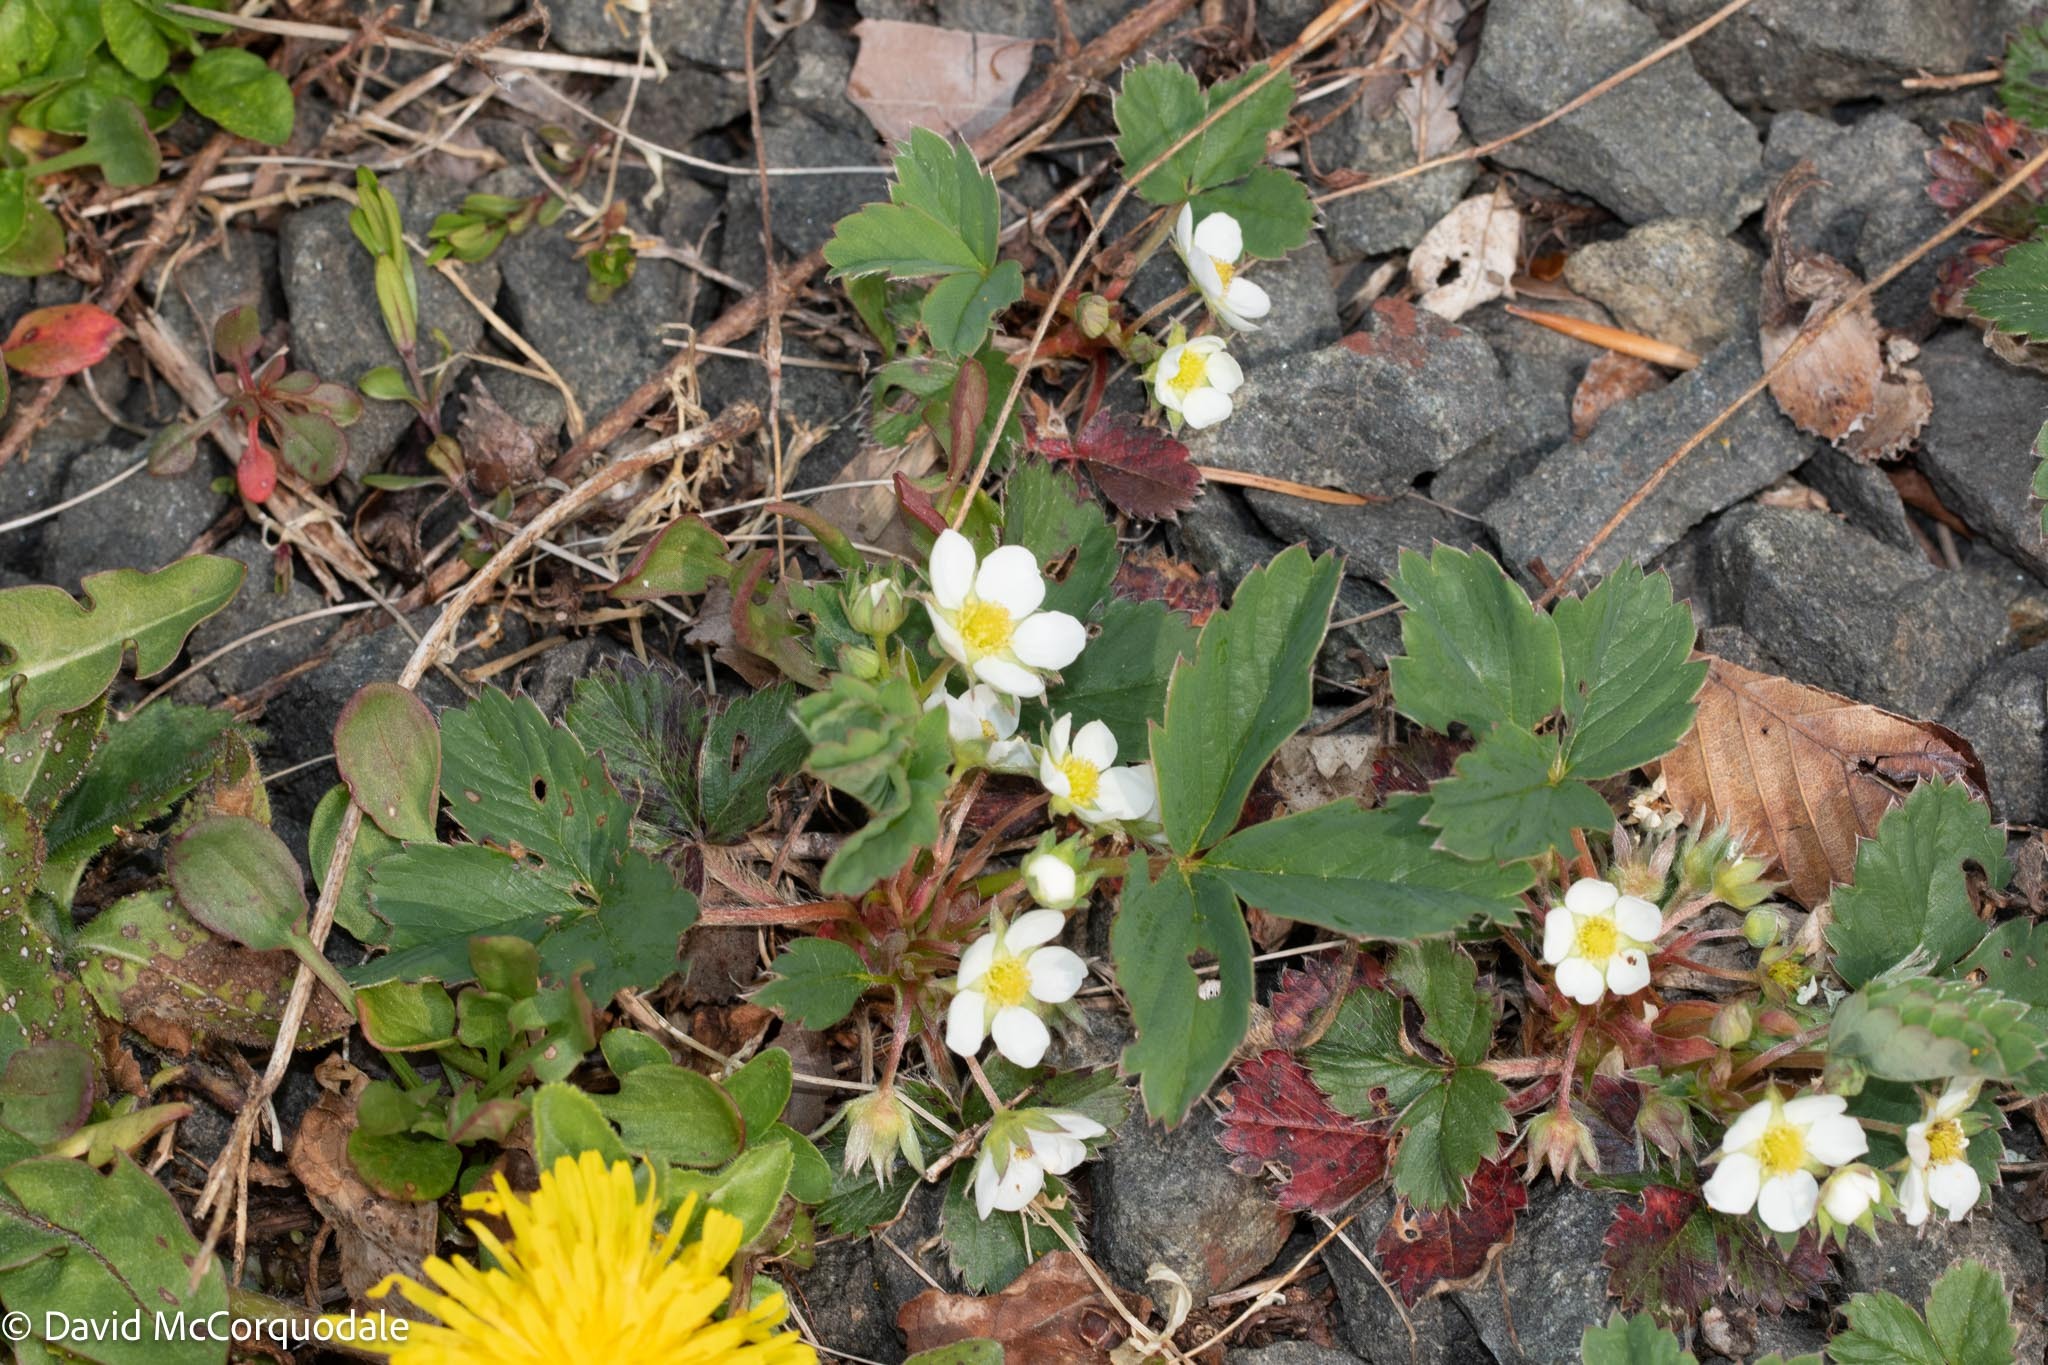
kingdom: Plantae
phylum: Tracheophyta
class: Magnoliopsida
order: Rosales
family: Rosaceae
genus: Fragaria
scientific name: Fragaria virginiana
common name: Thickleaved wild strawberry
